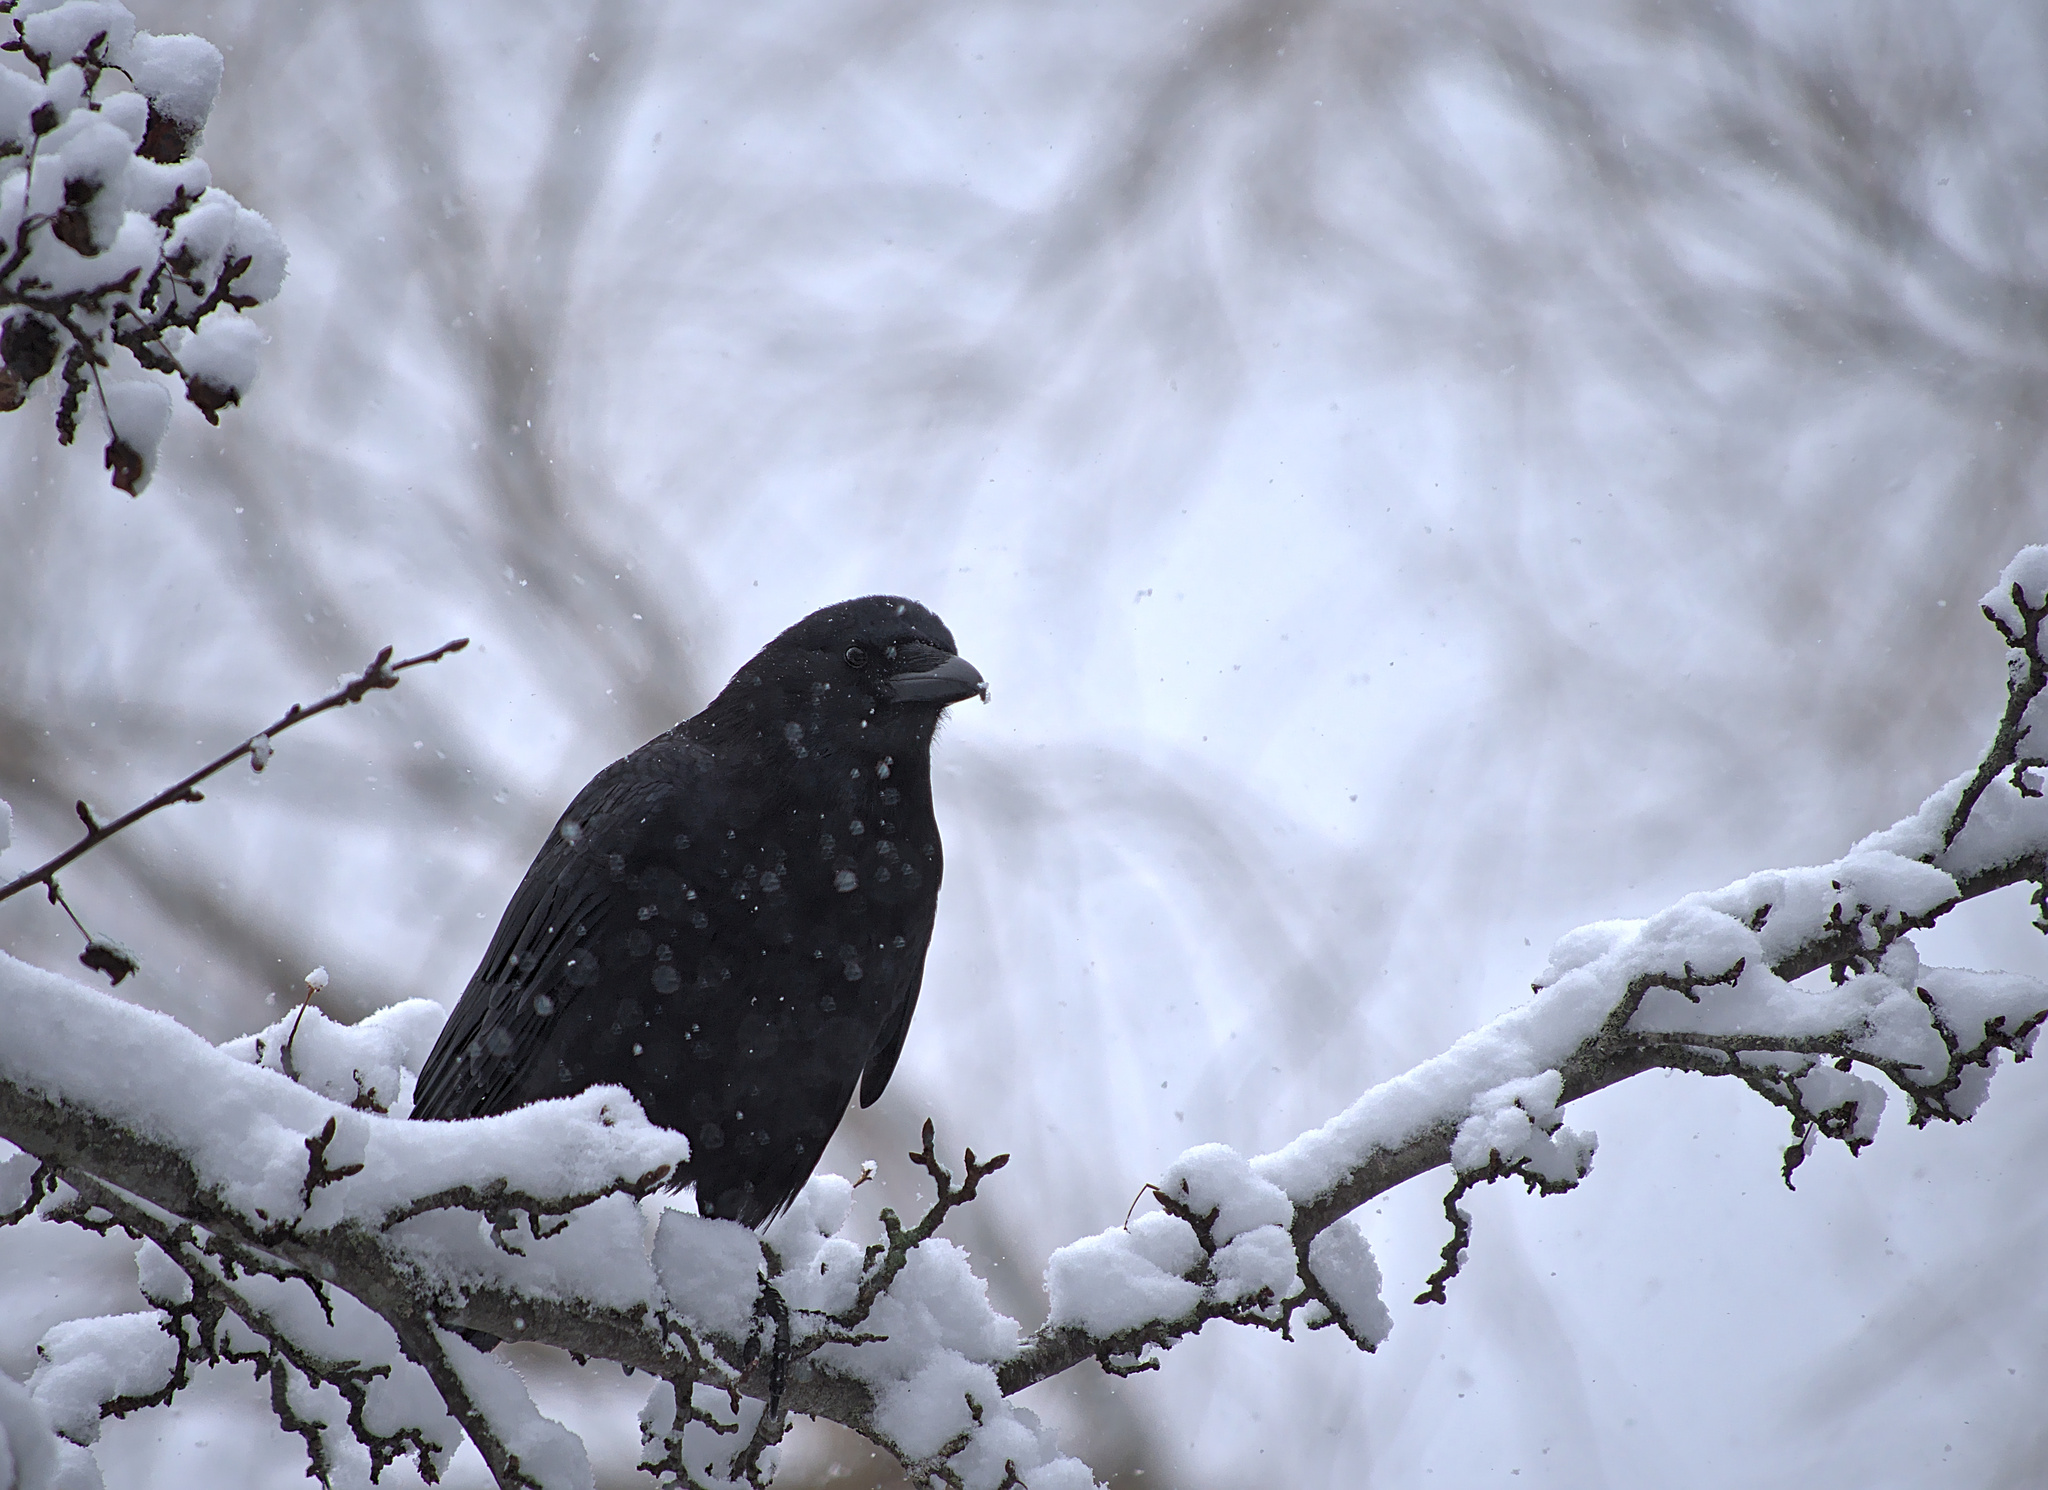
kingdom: Animalia
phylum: Chordata
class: Aves
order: Passeriformes
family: Corvidae
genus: Corvus
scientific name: Corvus brachyrhynchos
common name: American crow
